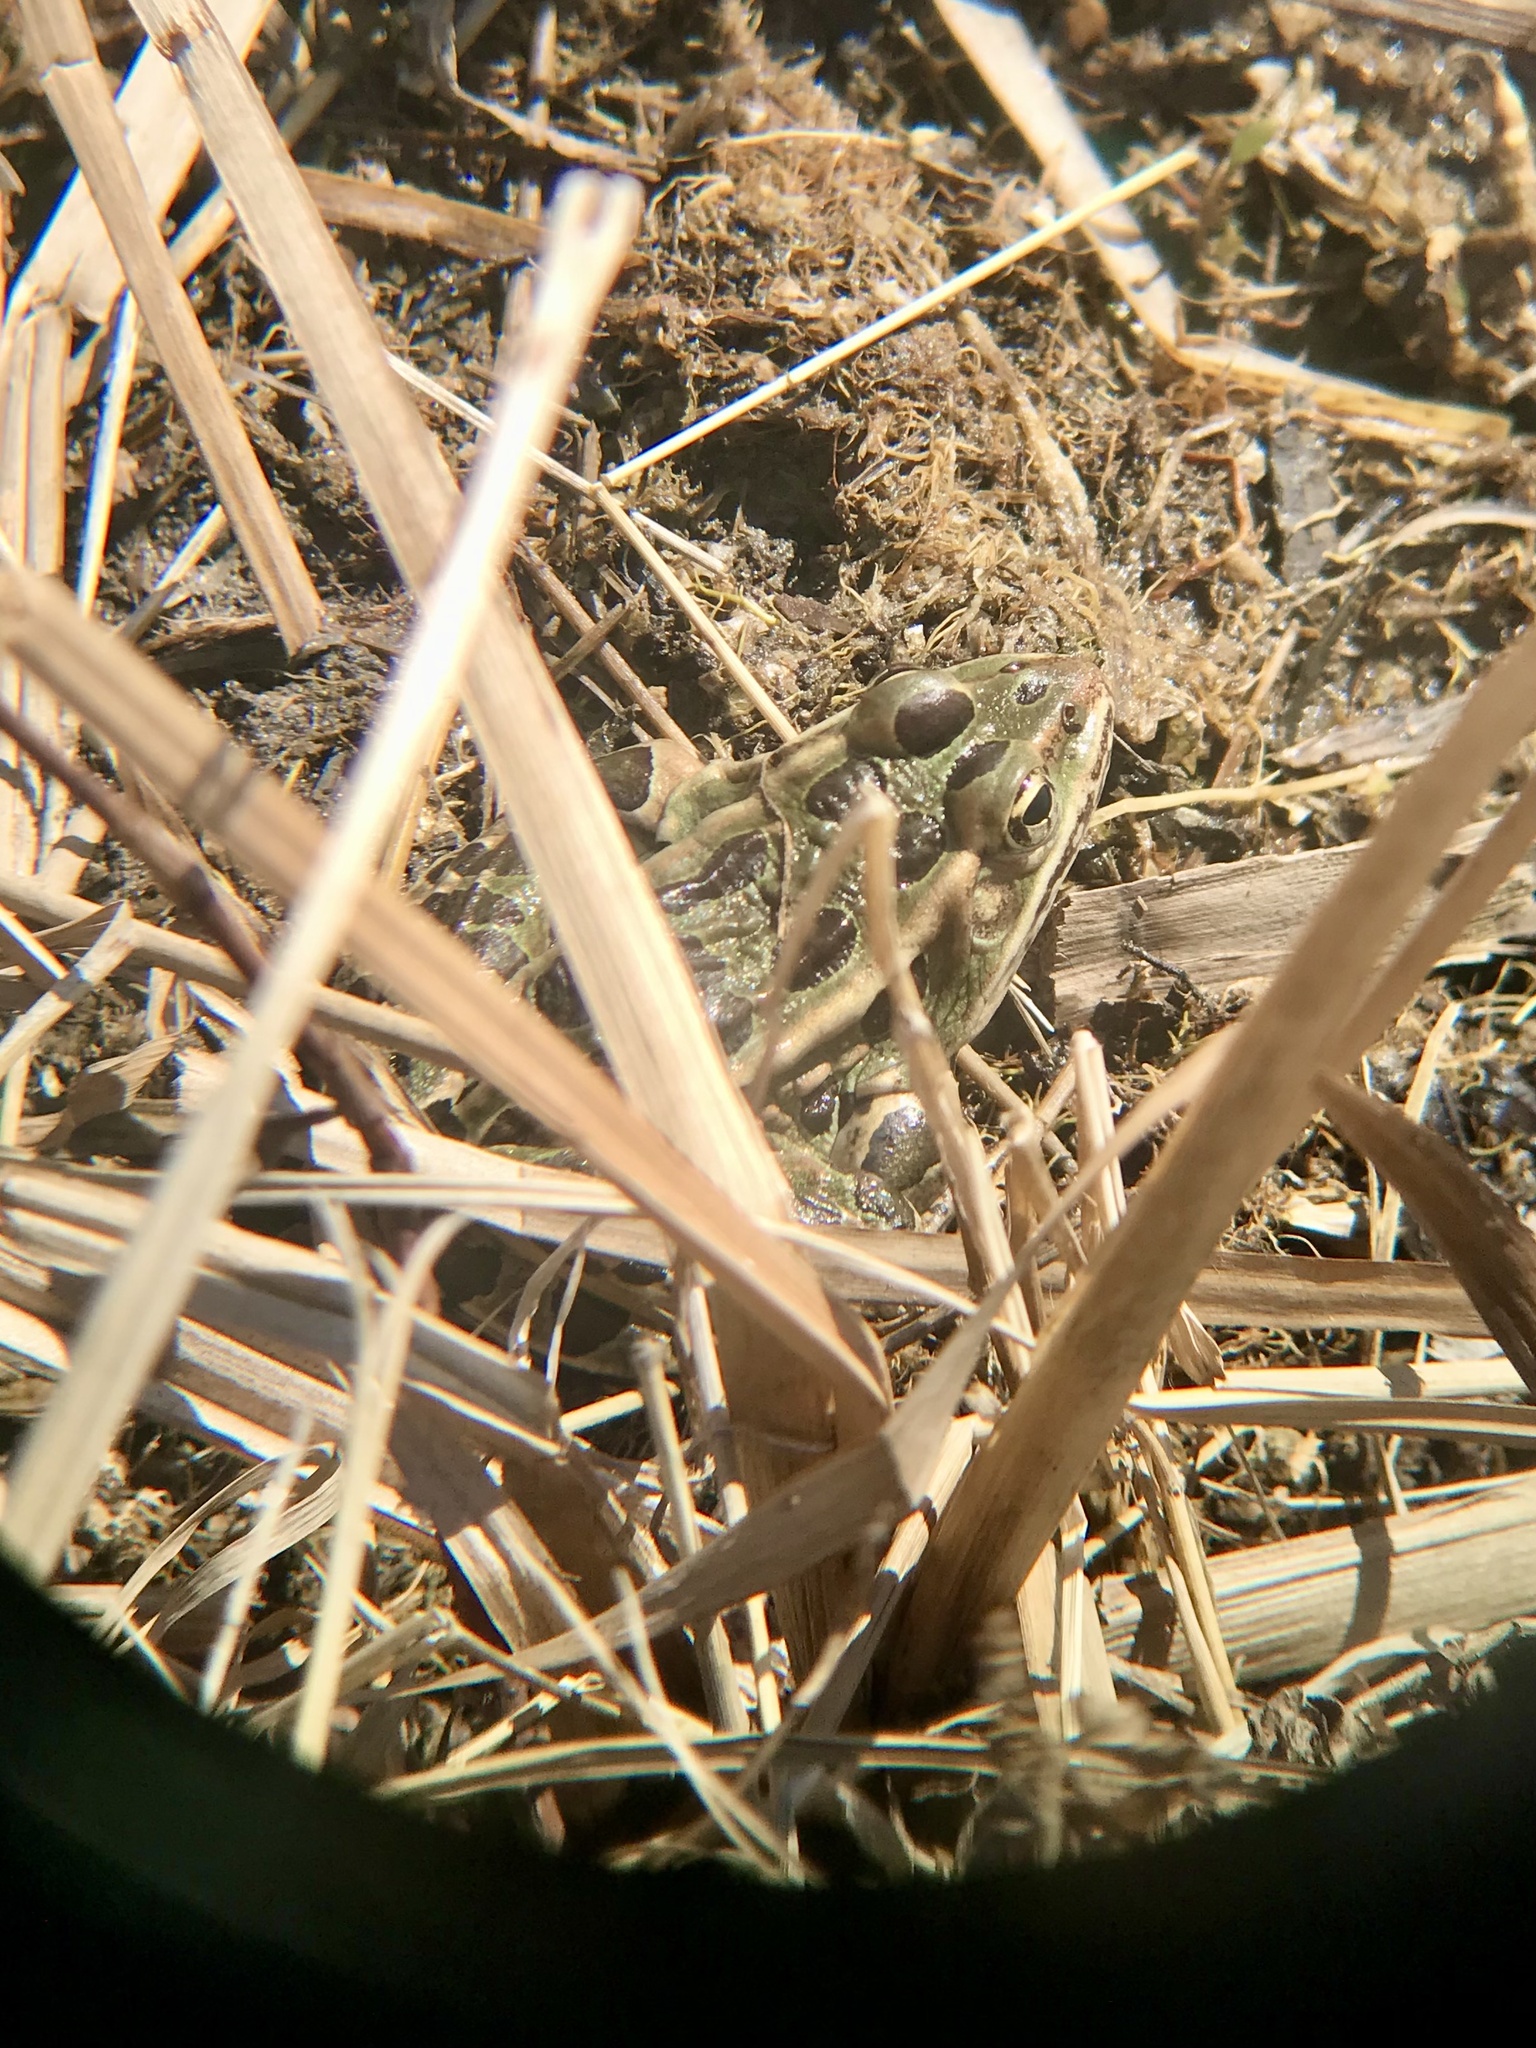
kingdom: Animalia
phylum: Chordata
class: Amphibia
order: Anura
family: Ranidae
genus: Lithobates
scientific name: Lithobates pipiens
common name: Northern leopard frog
